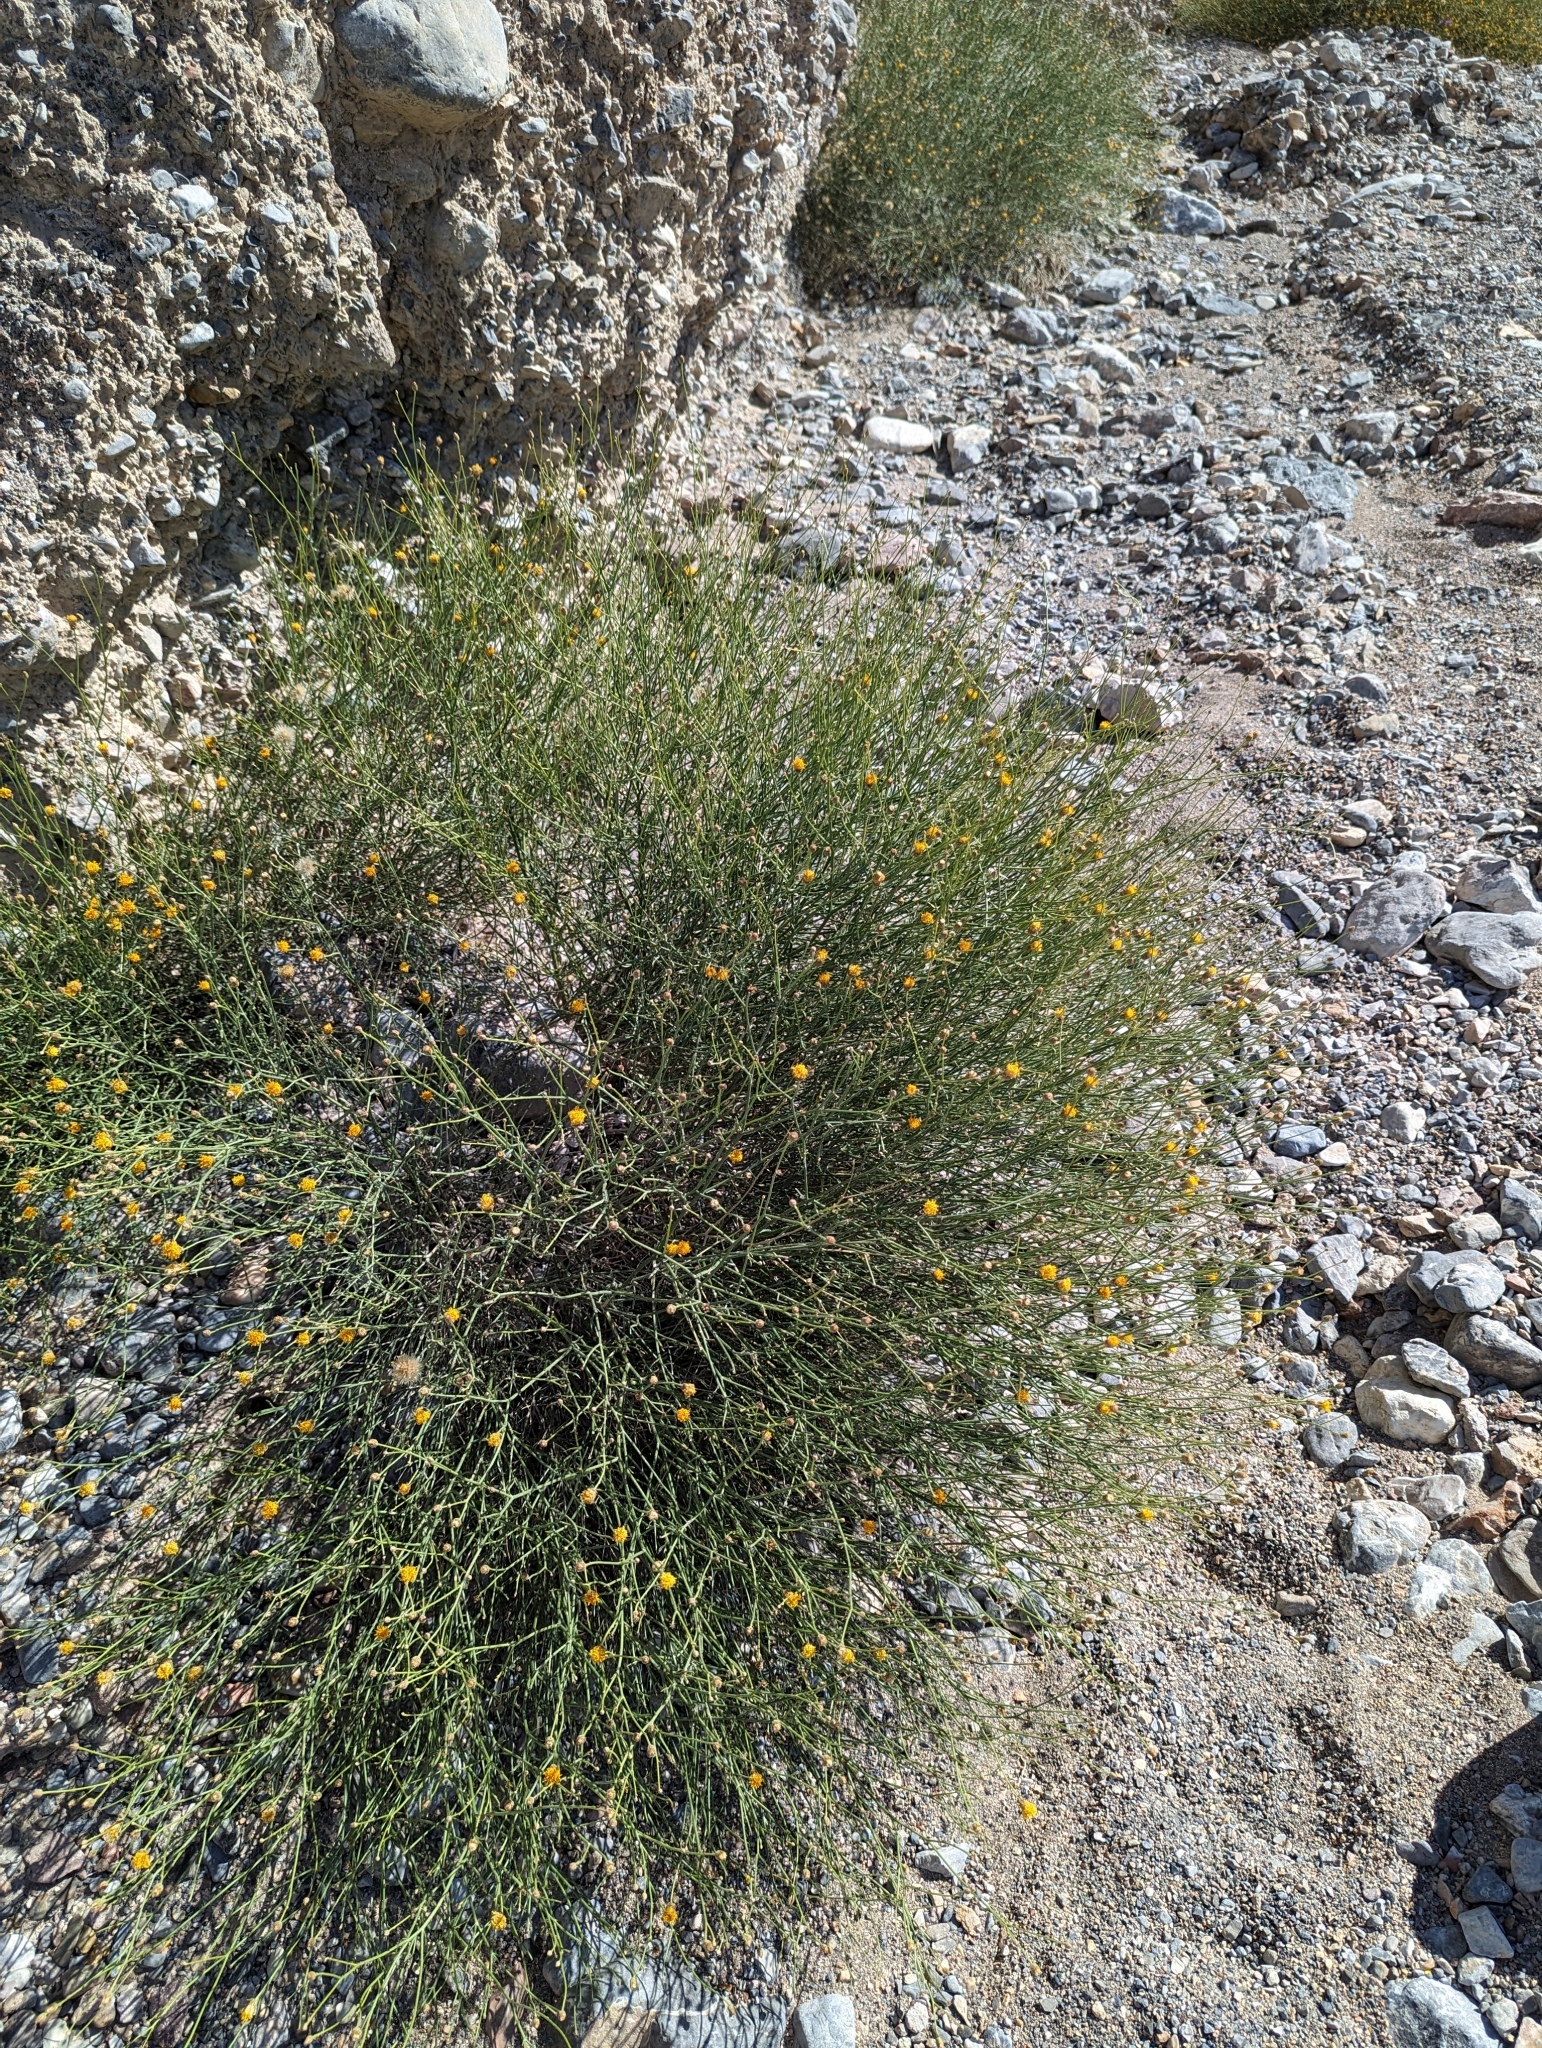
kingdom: Plantae
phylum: Tracheophyta
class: Magnoliopsida
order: Asterales
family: Asteraceae
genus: Bebbia
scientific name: Bebbia juncea
